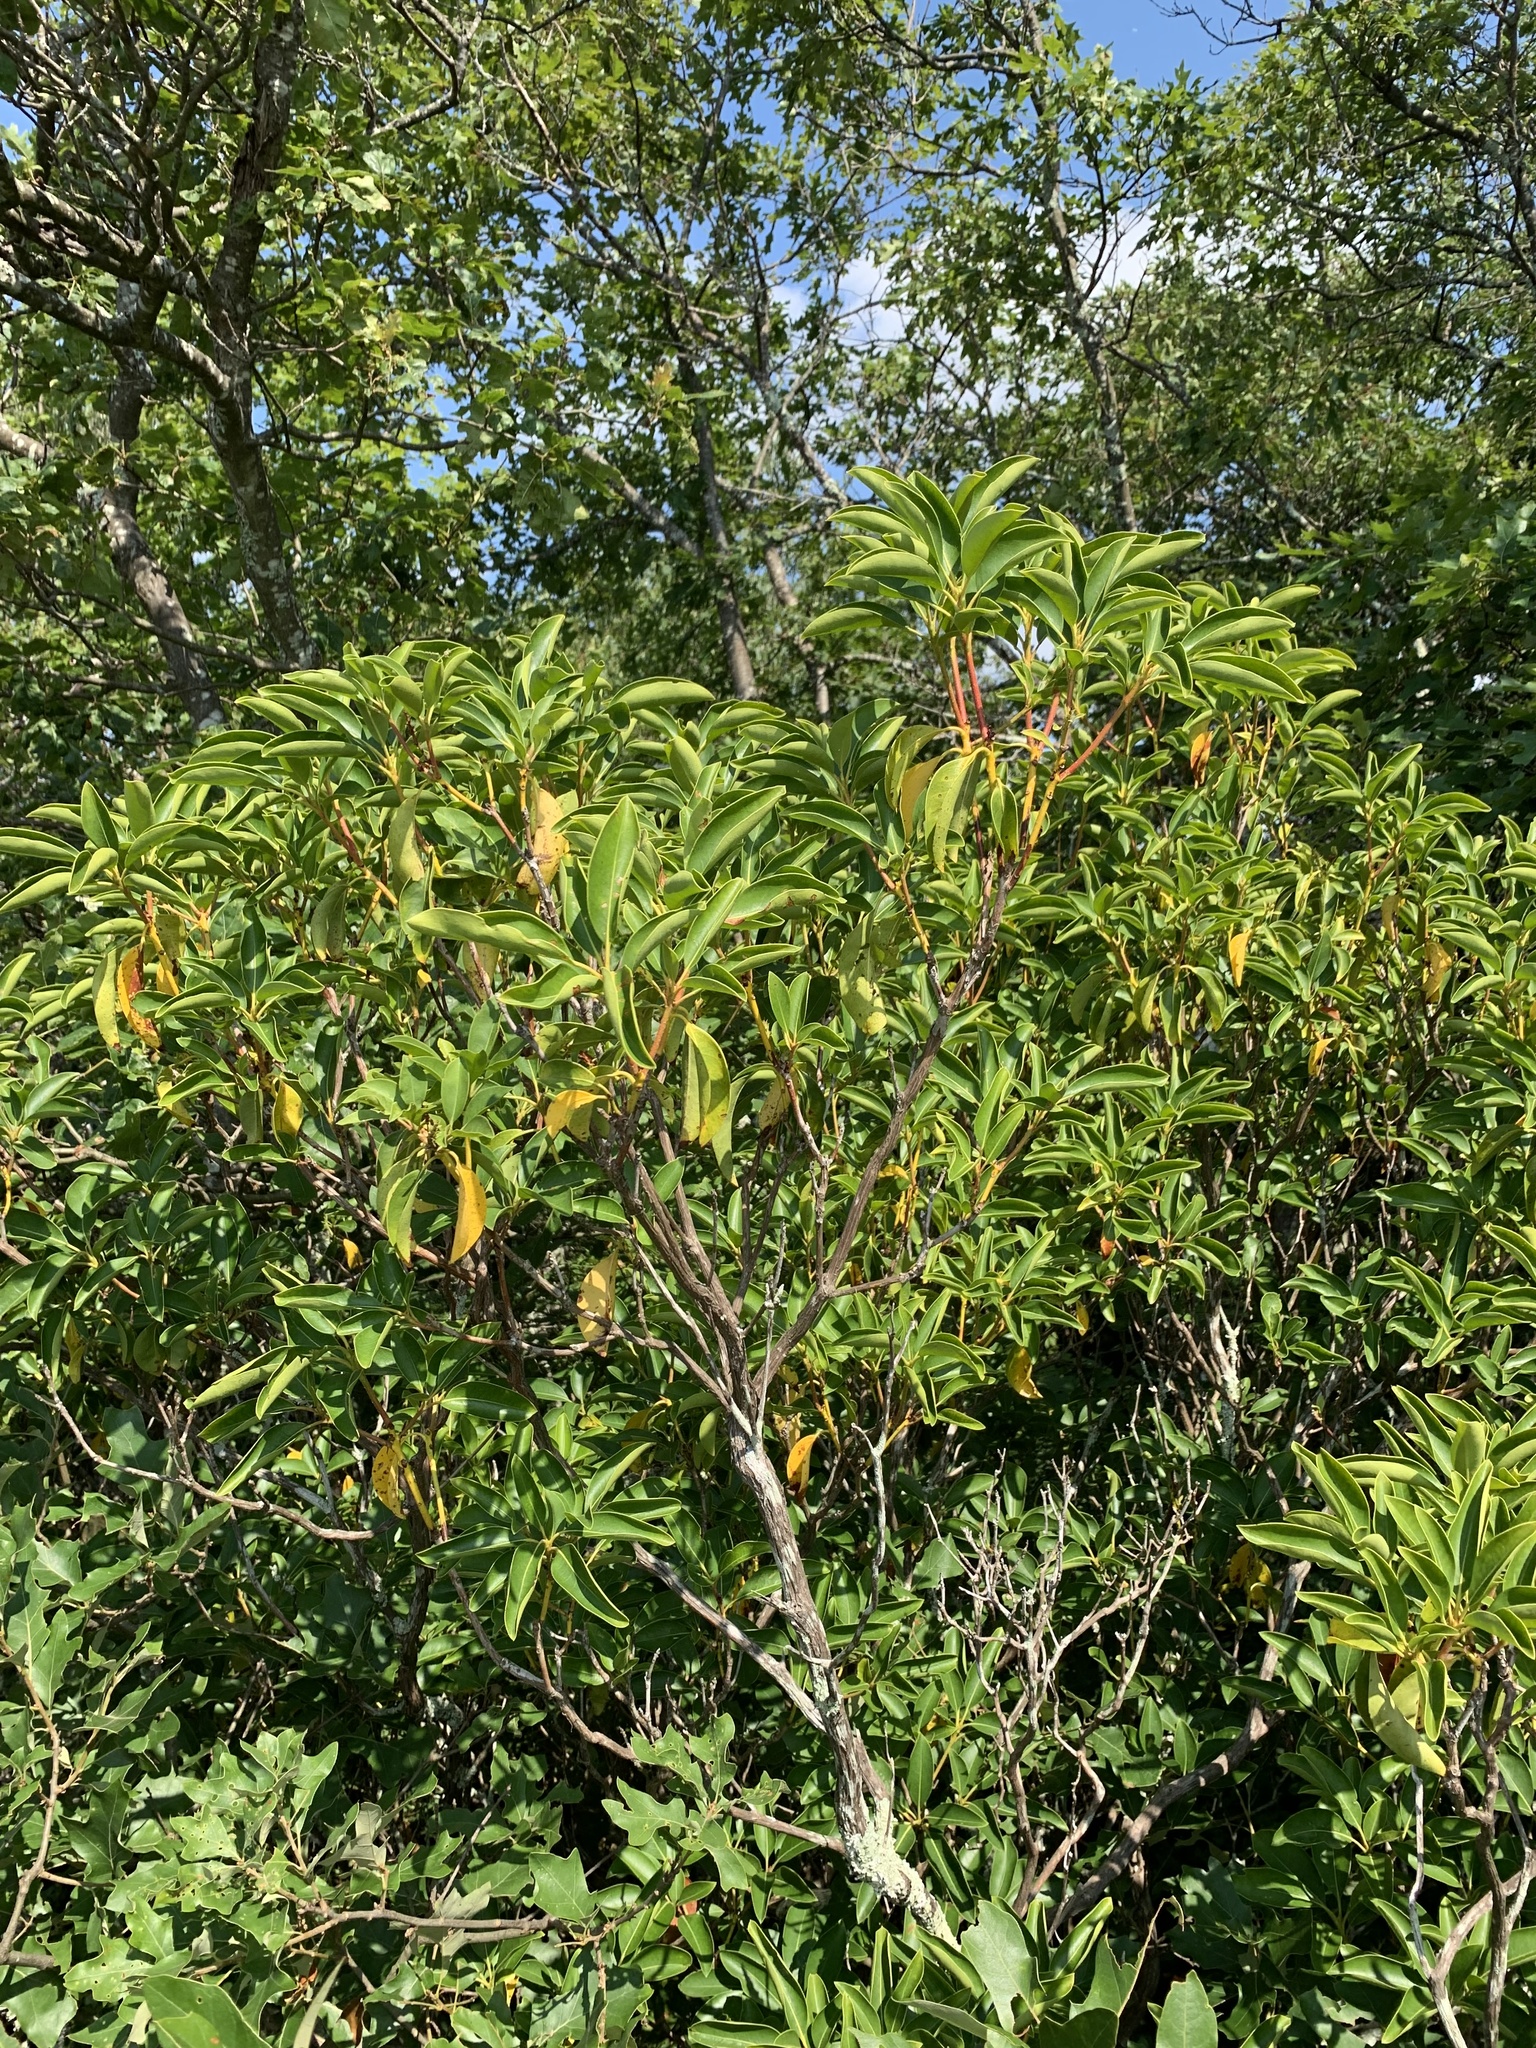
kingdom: Plantae
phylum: Tracheophyta
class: Magnoliopsida
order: Ericales
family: Ericaceae
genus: Kalmia
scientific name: Kalmia latifolia
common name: Mountain-laurel
